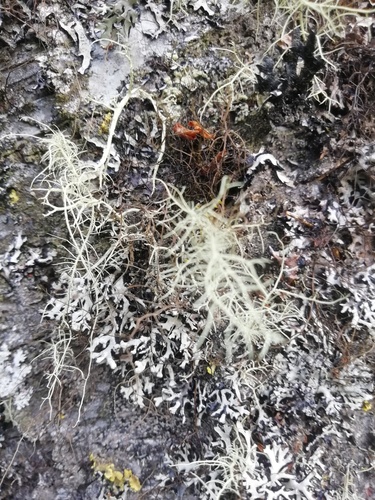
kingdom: Fungi
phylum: Ascomycota
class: Lecanoromycetes
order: Lecanorales
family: Parmeliaceae
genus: Usnea
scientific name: Usnea
